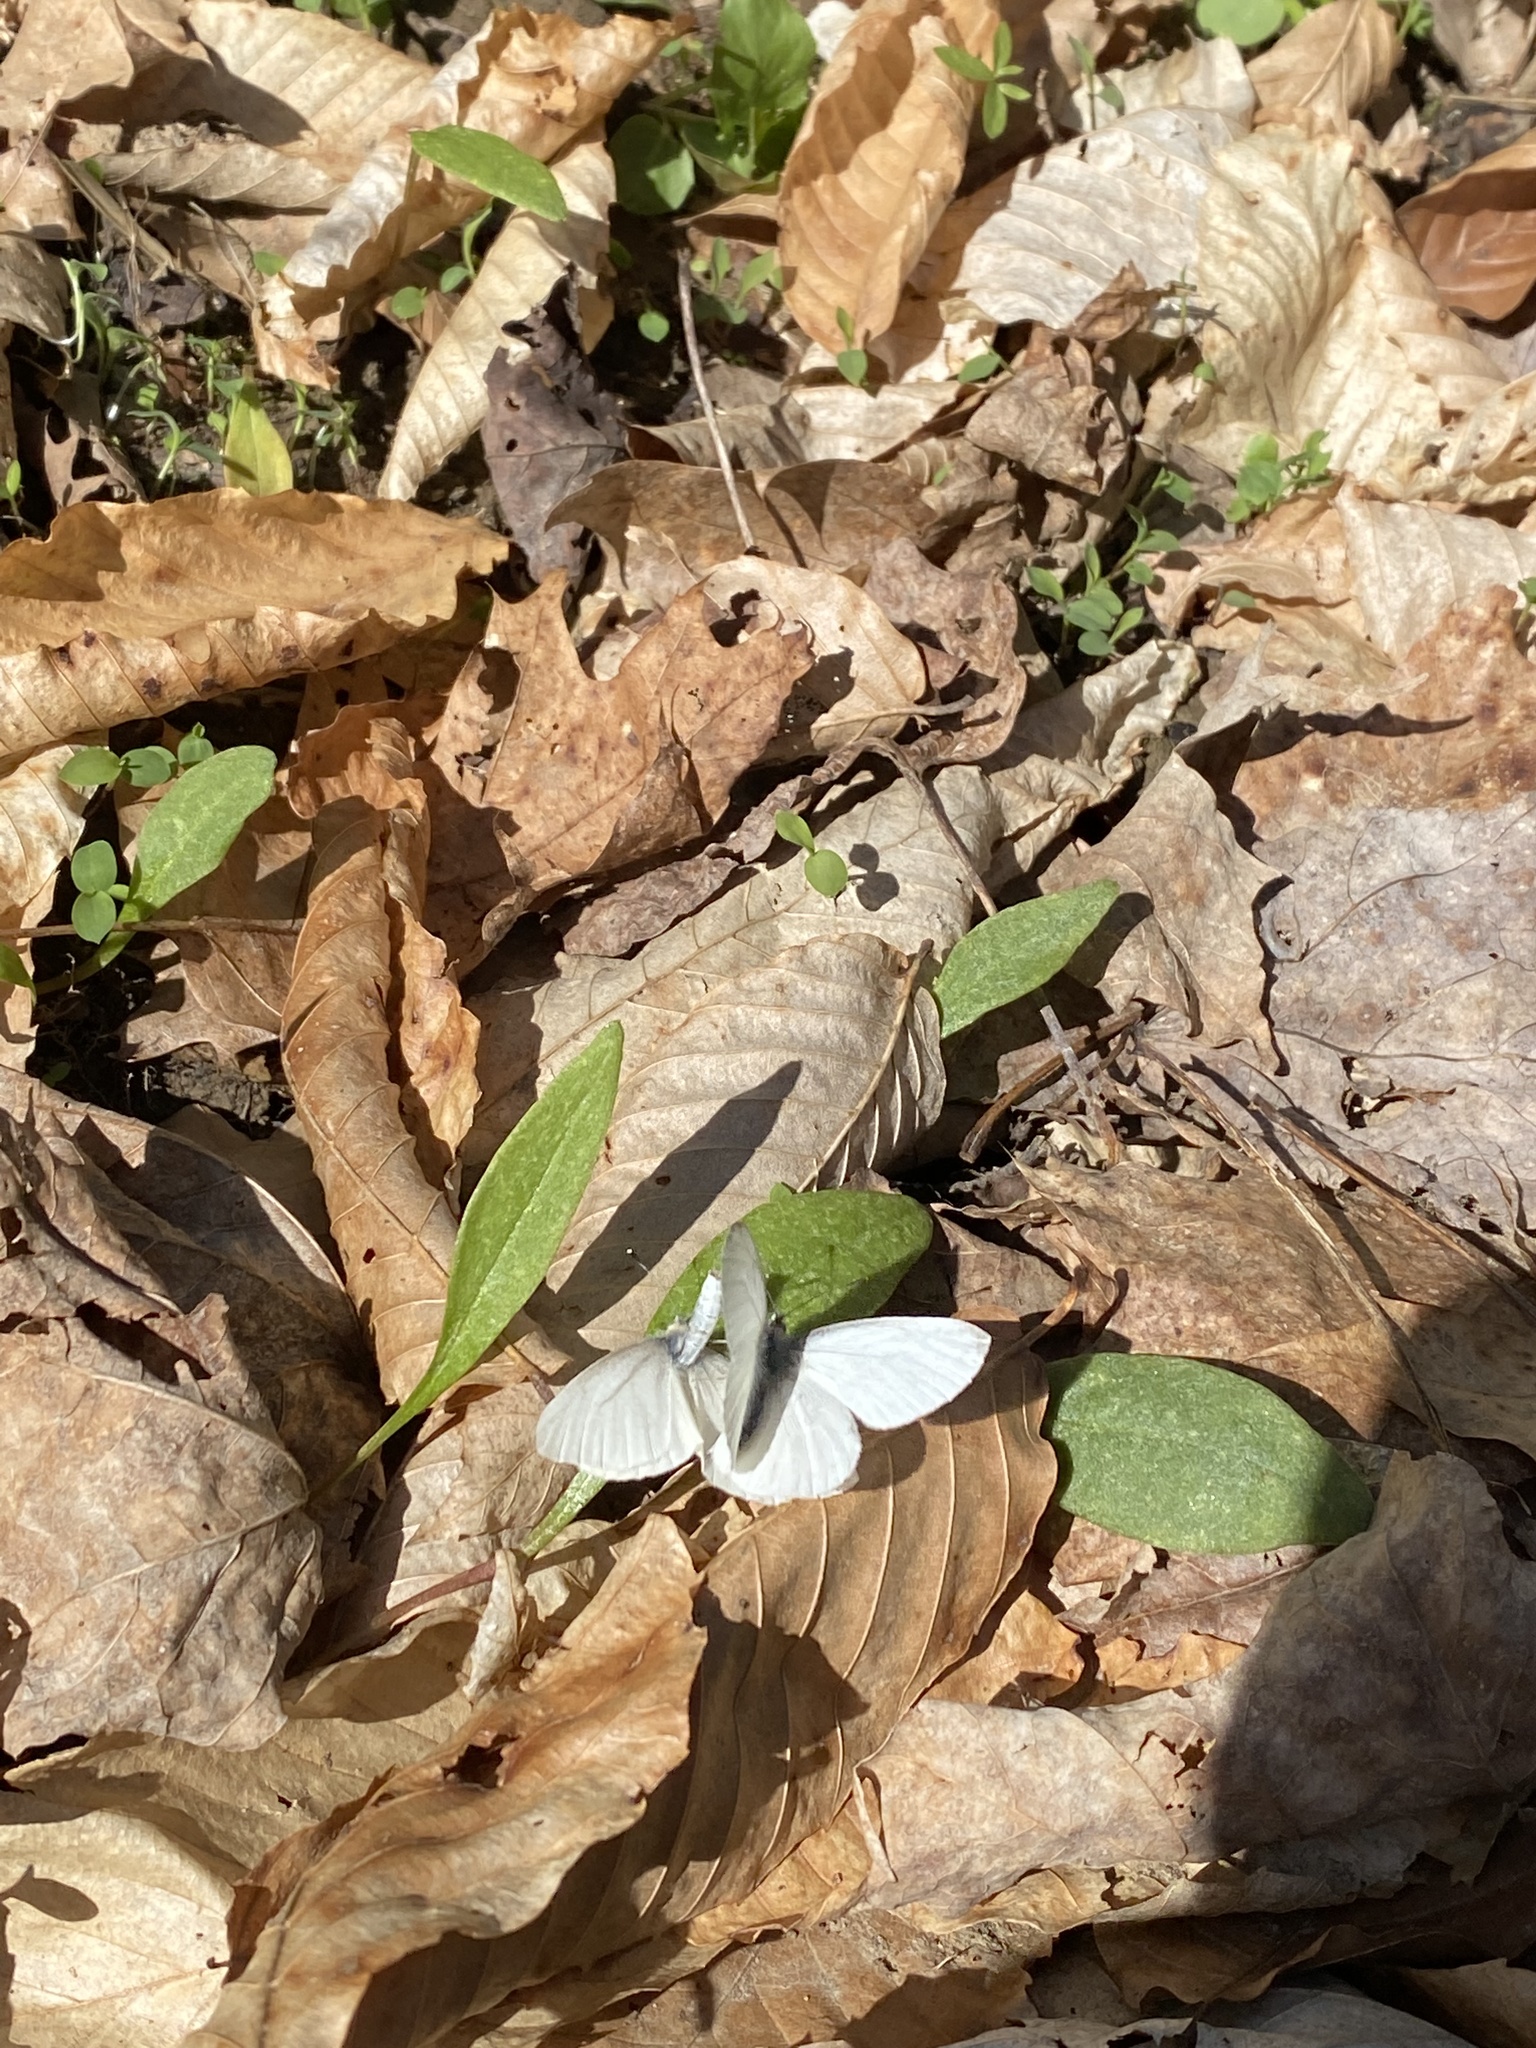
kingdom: Animalia
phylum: Arthropoda
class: Insecta
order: Lepidoptera
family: Pieridae
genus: Pieris
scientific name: Pieris virginiensis
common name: West virginia white
